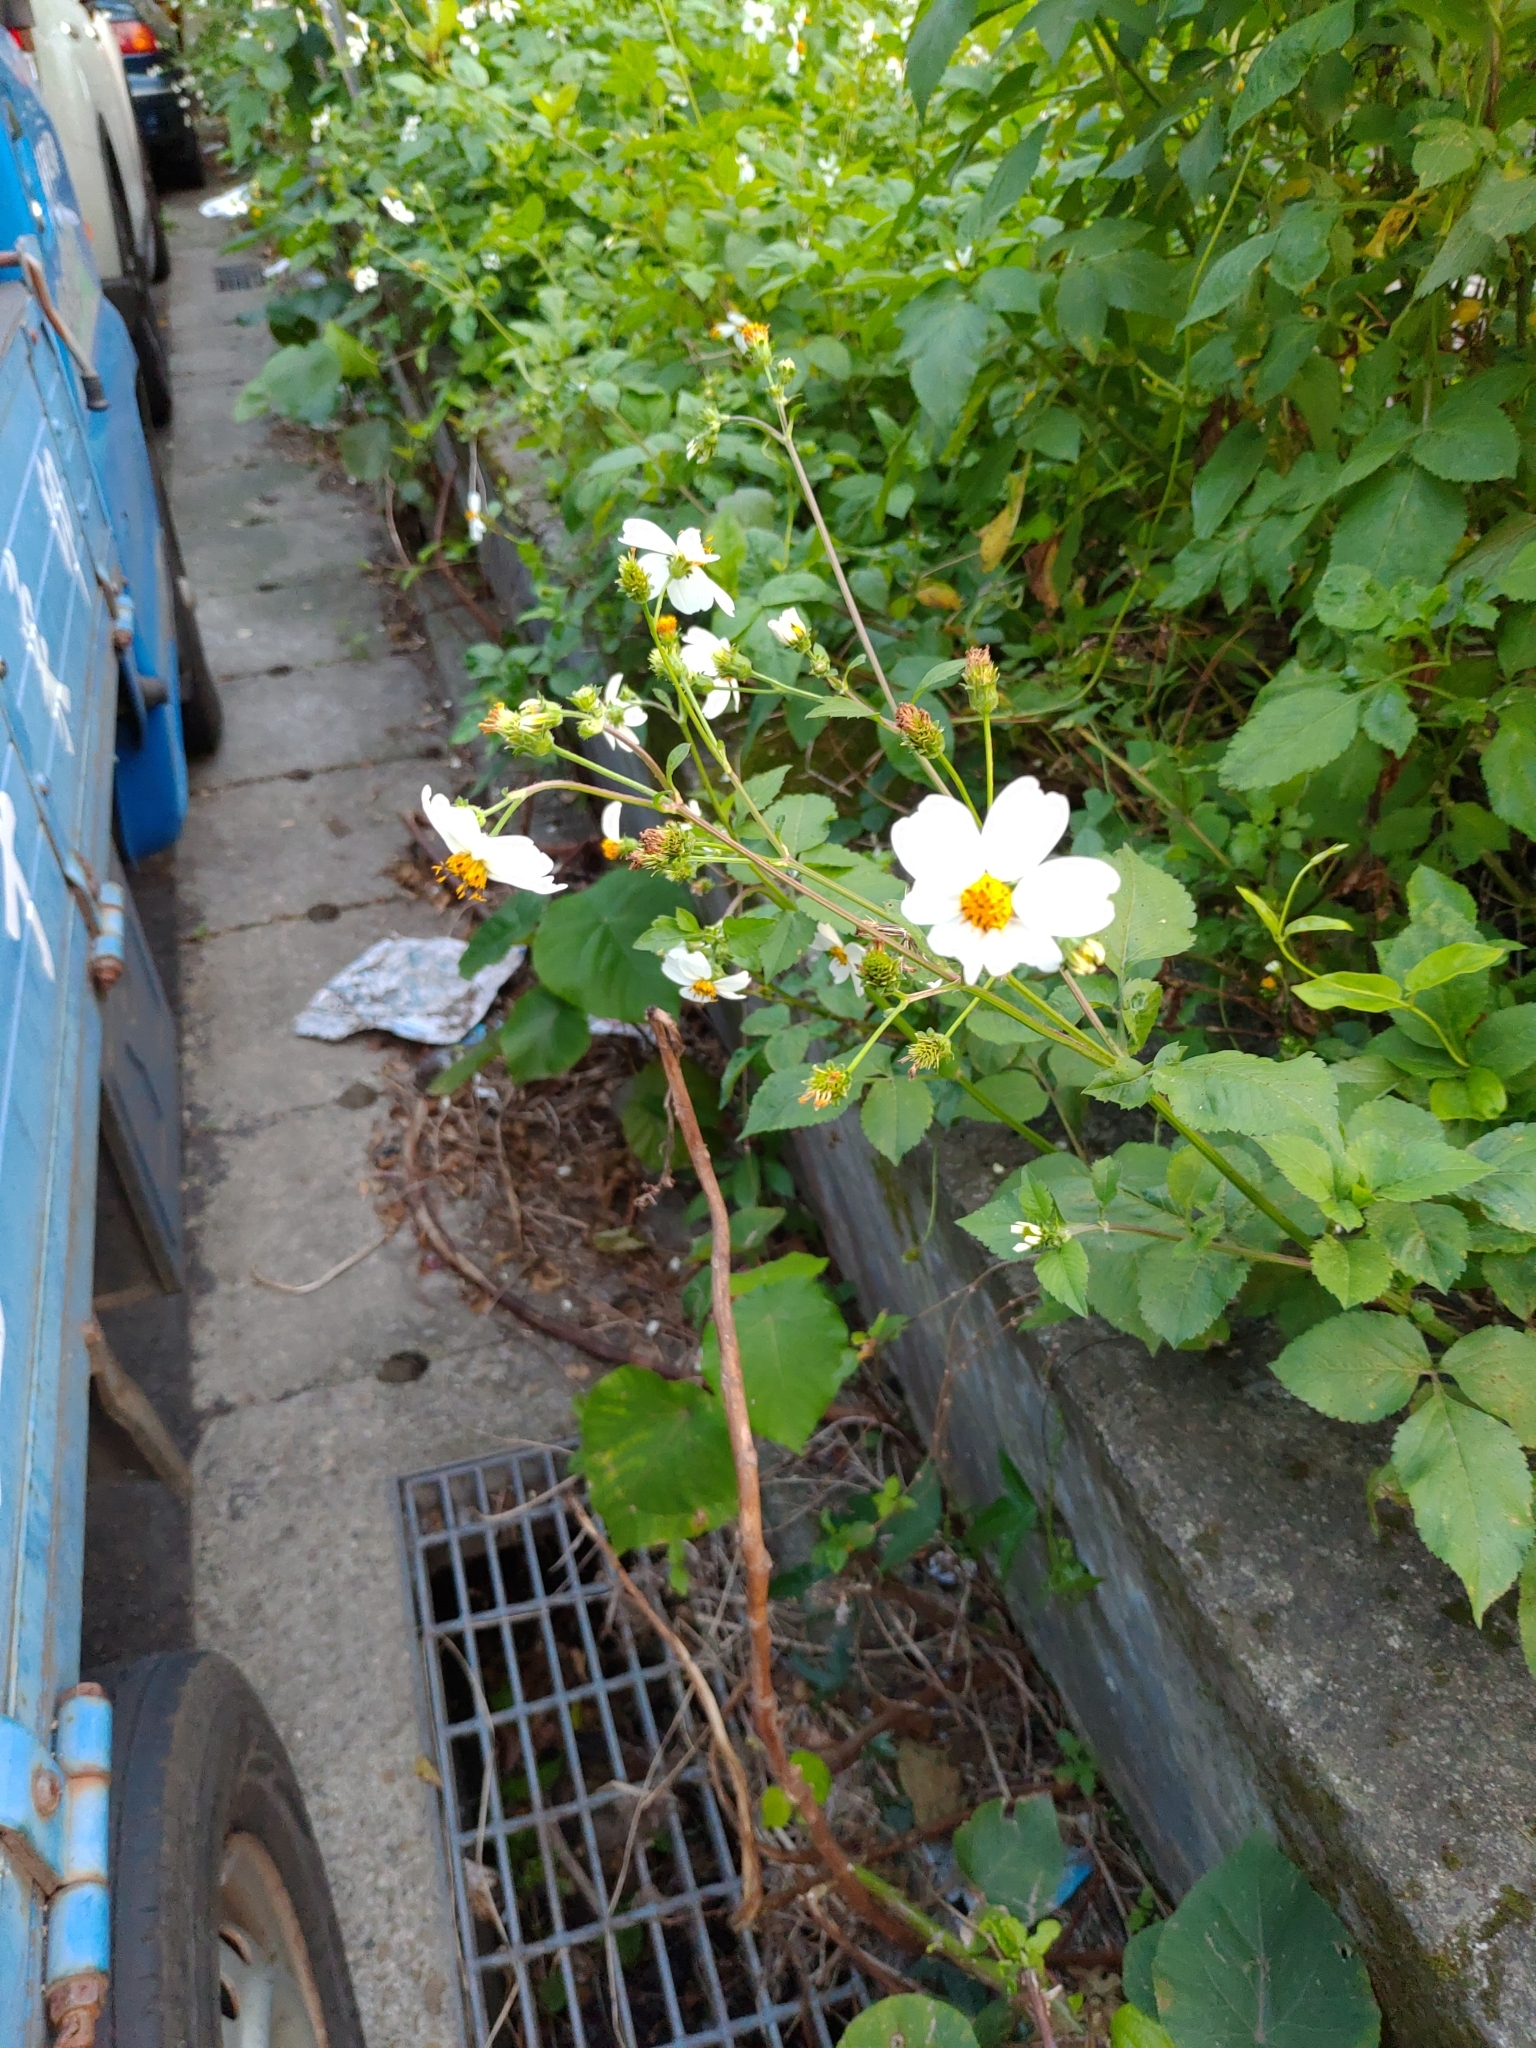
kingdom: Plantae
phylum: Tracheophyta
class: Magnoliopsida
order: Asterales
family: Asteraceae
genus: Bidens
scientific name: Bidens alba
